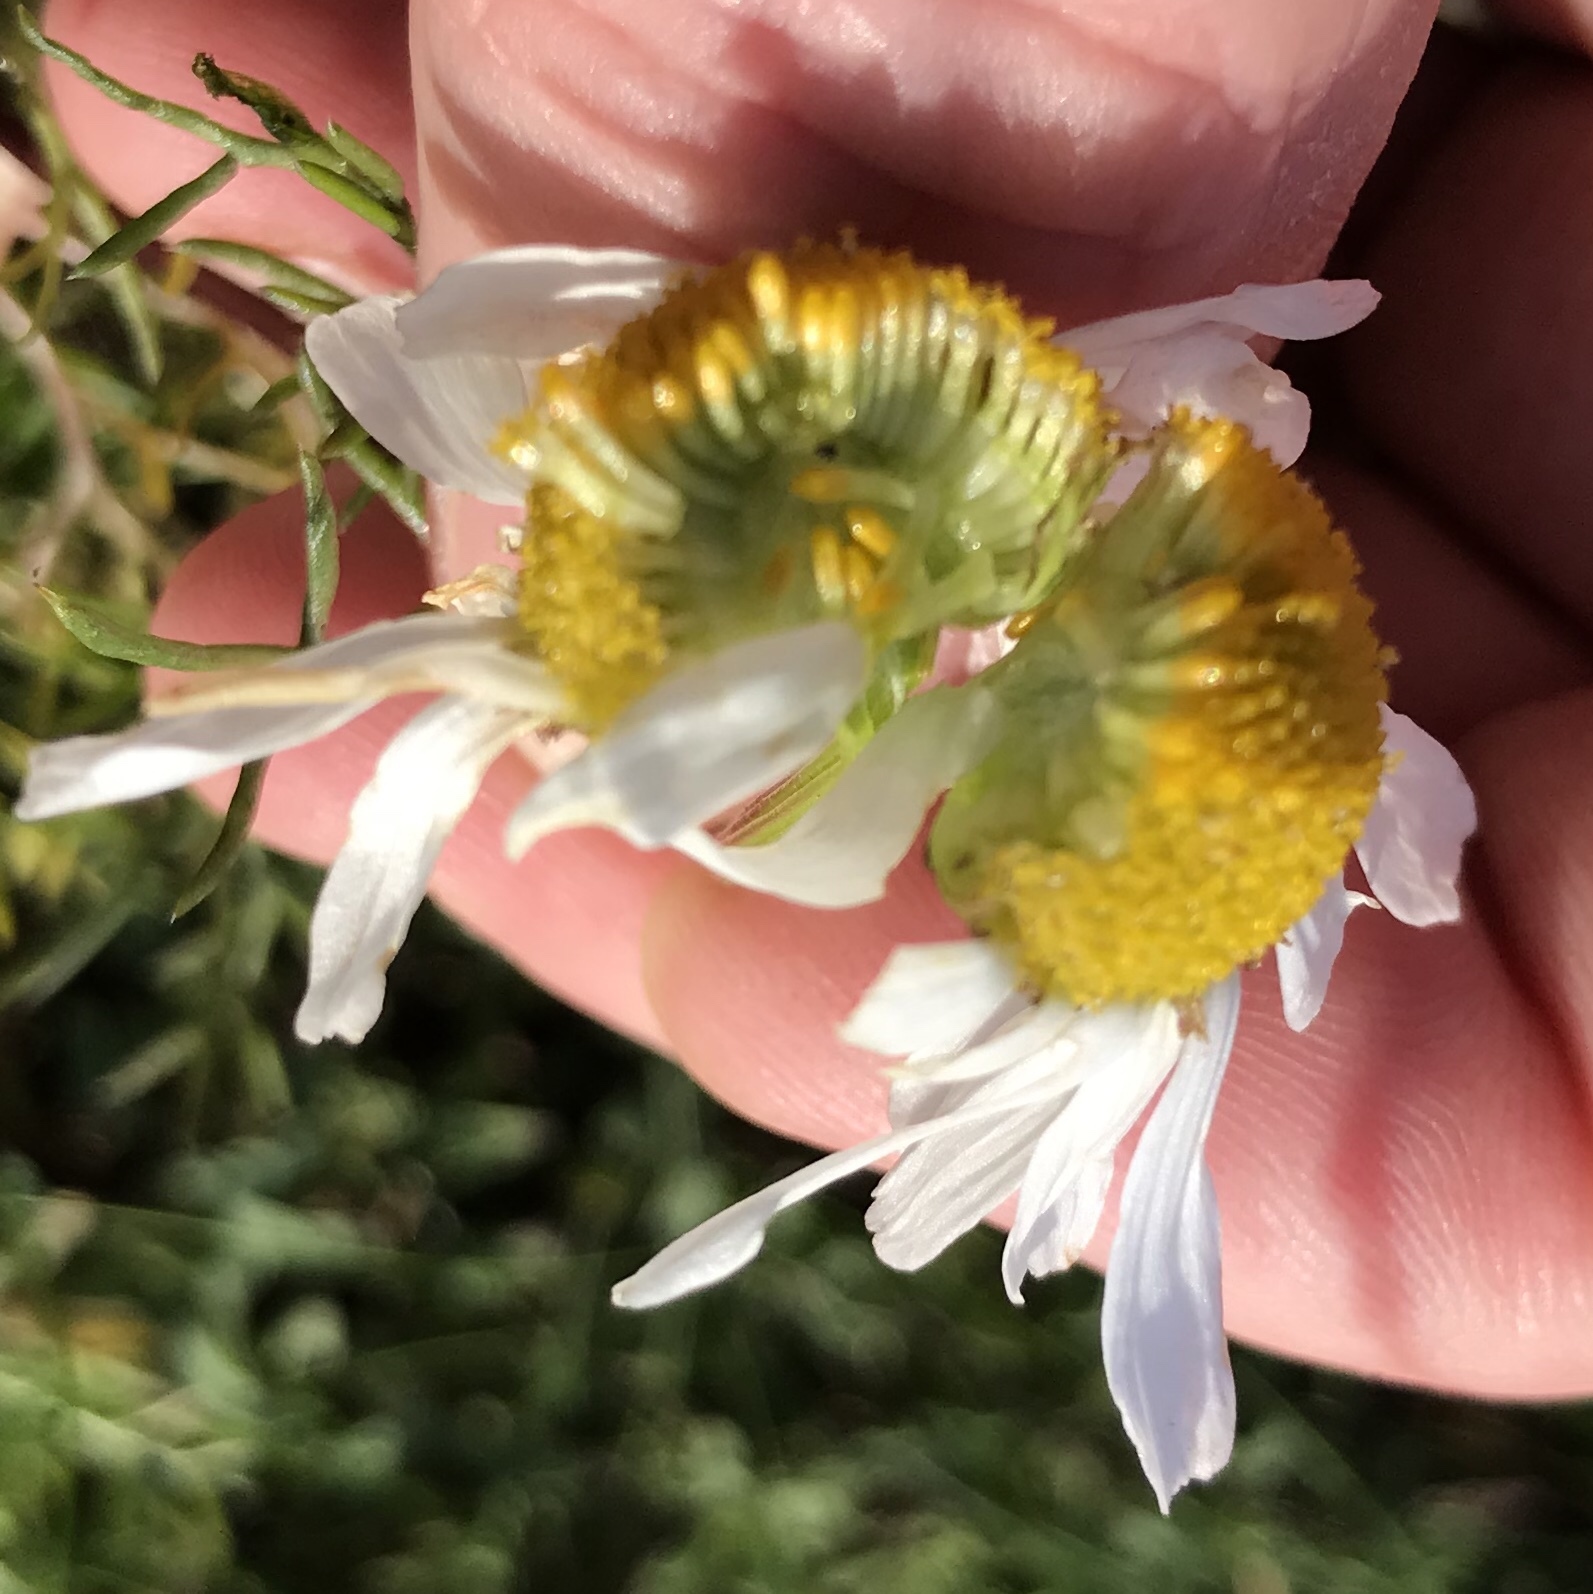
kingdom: Plantae
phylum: Tracheophyta
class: Magnoliopsida
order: Asterales
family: Asteraceae
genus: Tripleurospermum
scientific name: Tripleurospermum maritimum
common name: Sea mayweed
